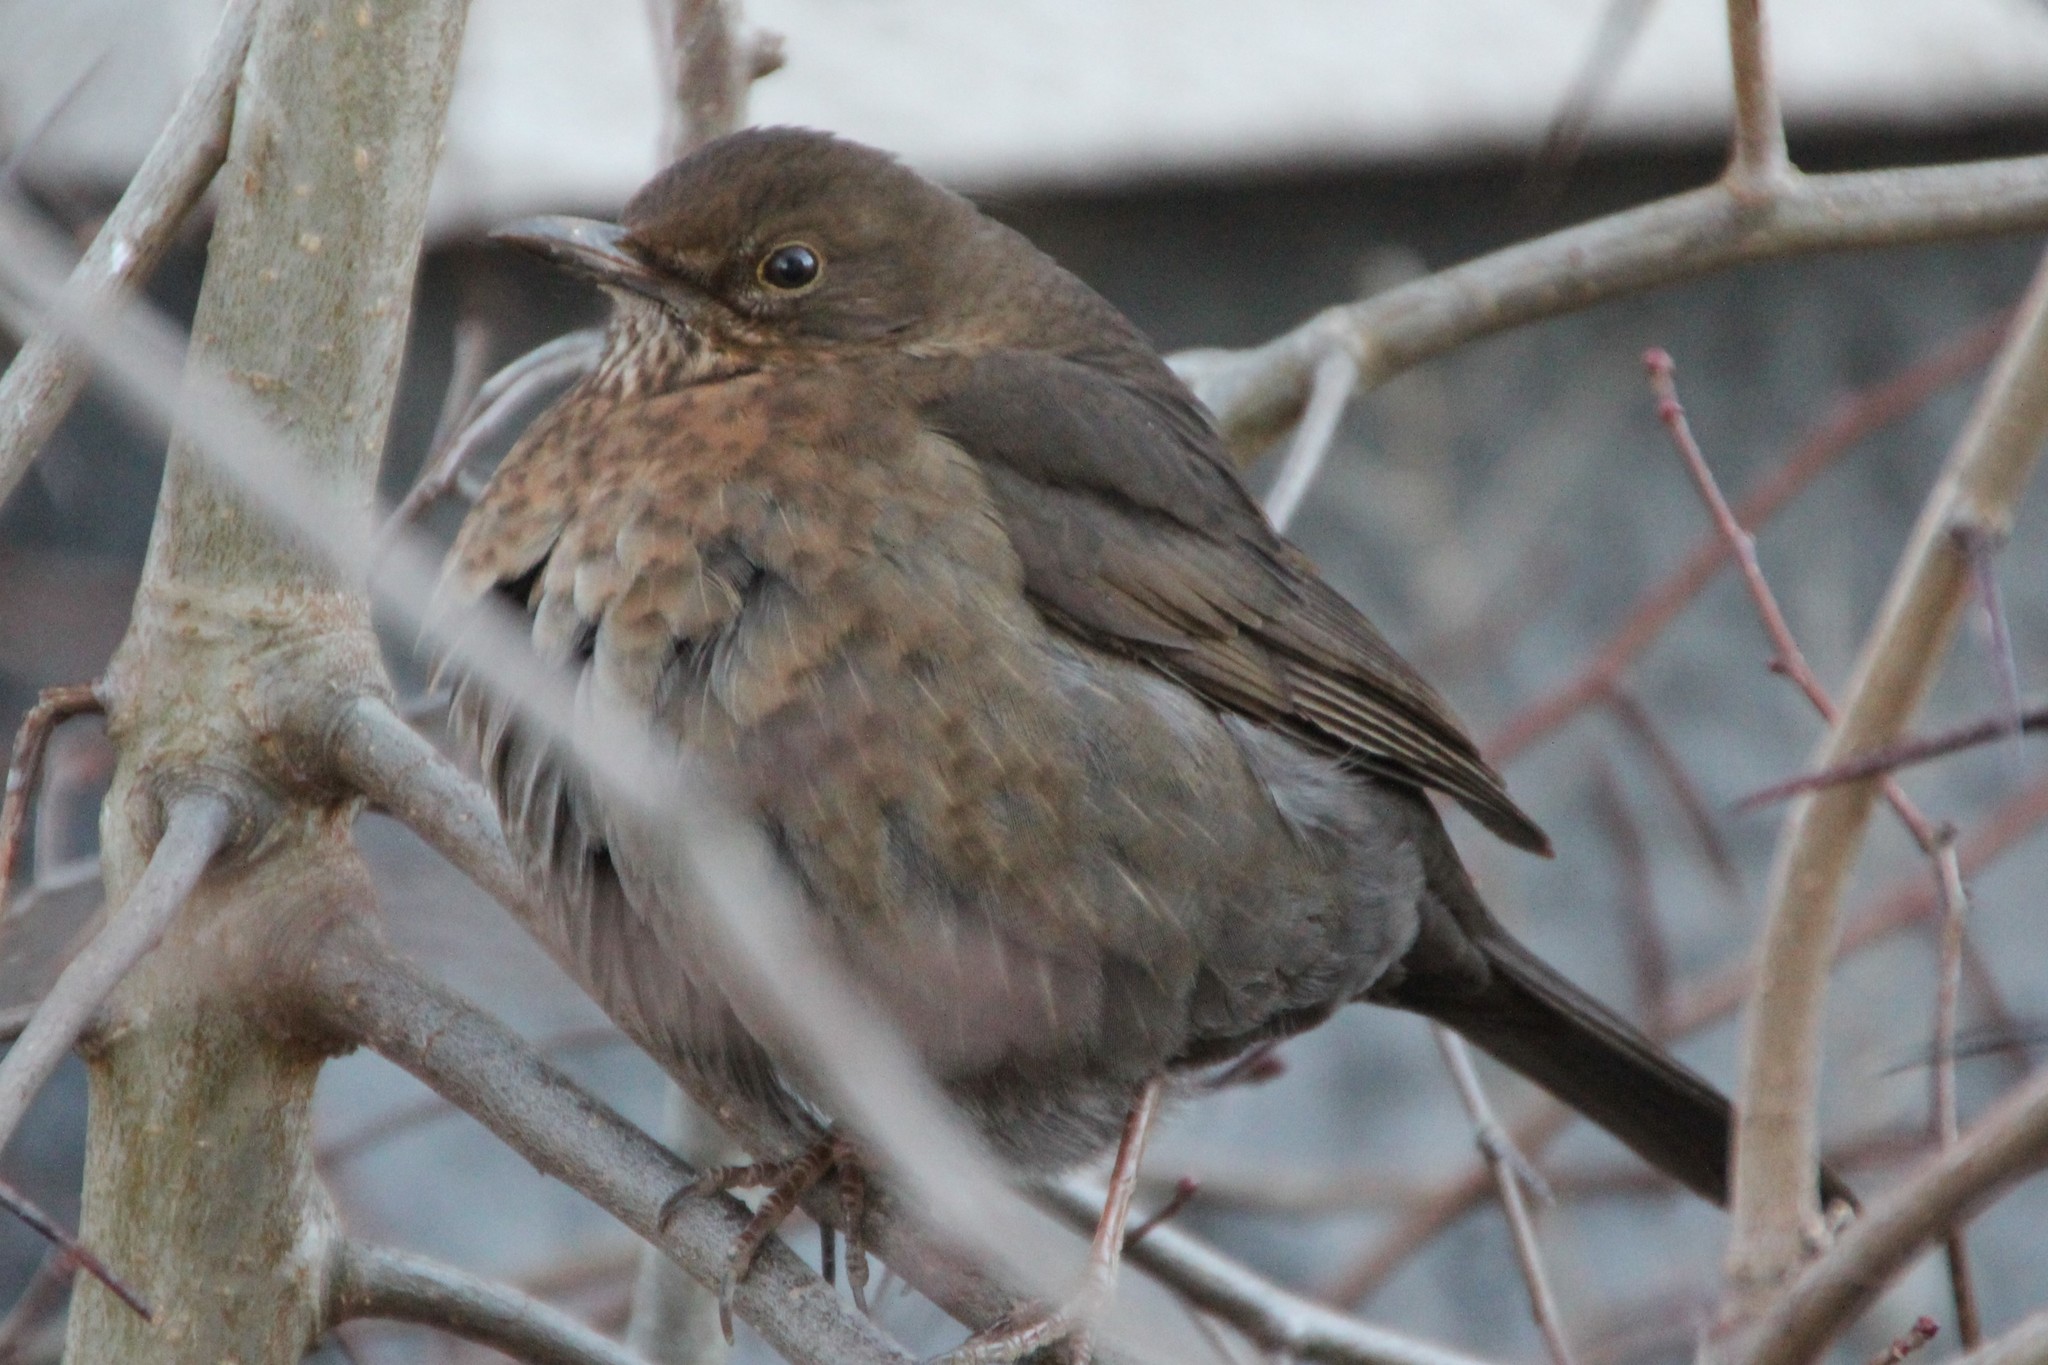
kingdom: Animalia
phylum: Chordata
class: Aves
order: Passeriformes
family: Turdidae
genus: Turdus
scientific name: Turdus merula
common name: Common blackbird
